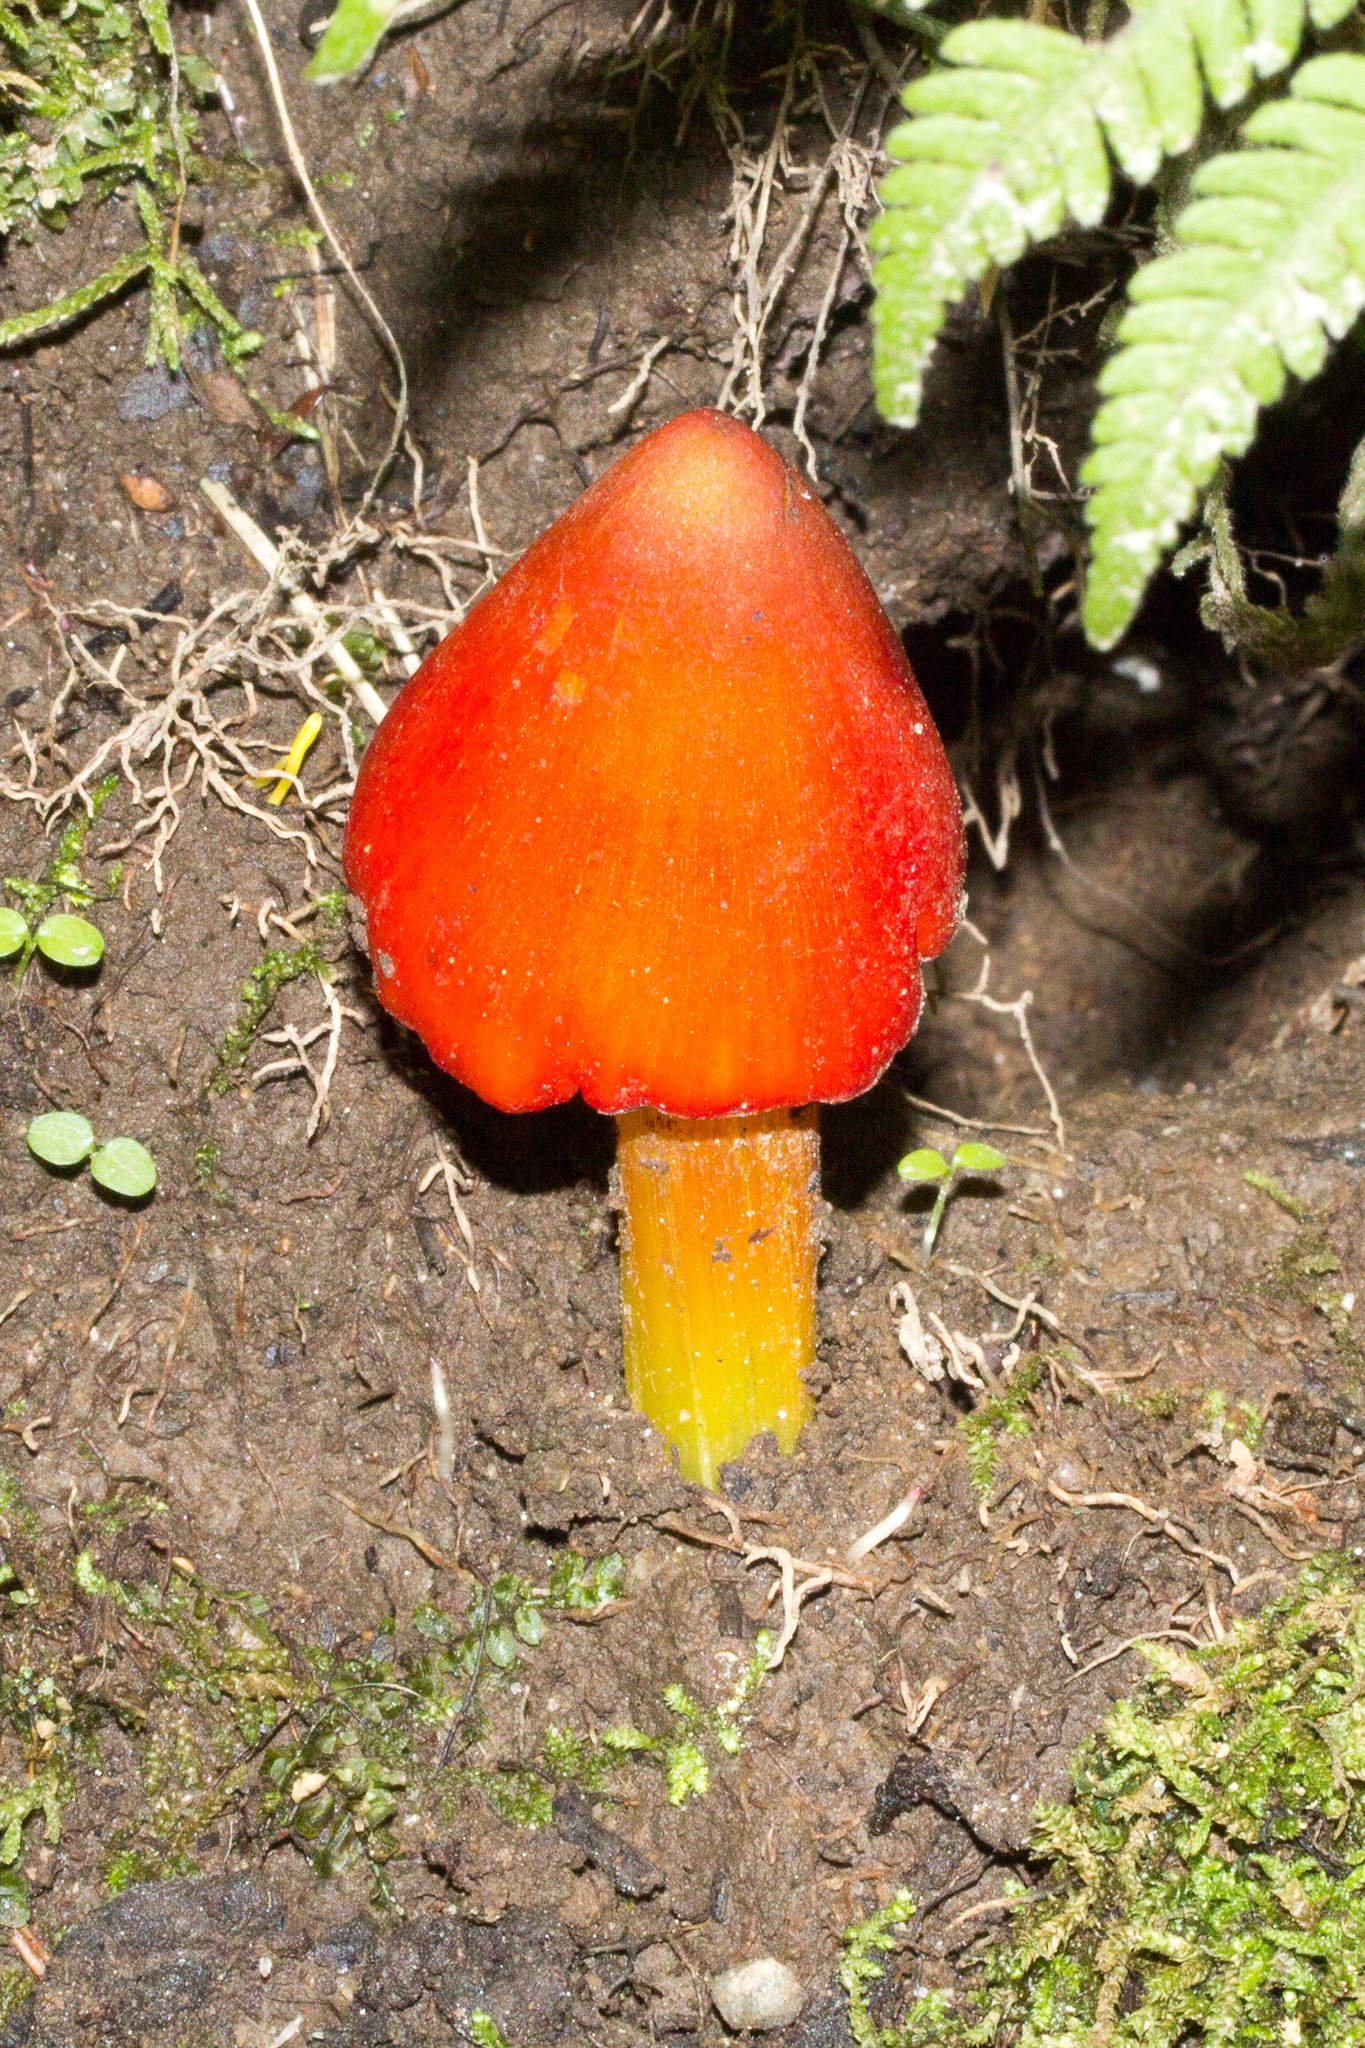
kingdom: Fungi
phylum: Basidiomycota
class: Agaricomycetes
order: Agaricales
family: Hygrophoraceae
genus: Hygrocybe
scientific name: Hygrocybe conica
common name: Blackening wax-cap
